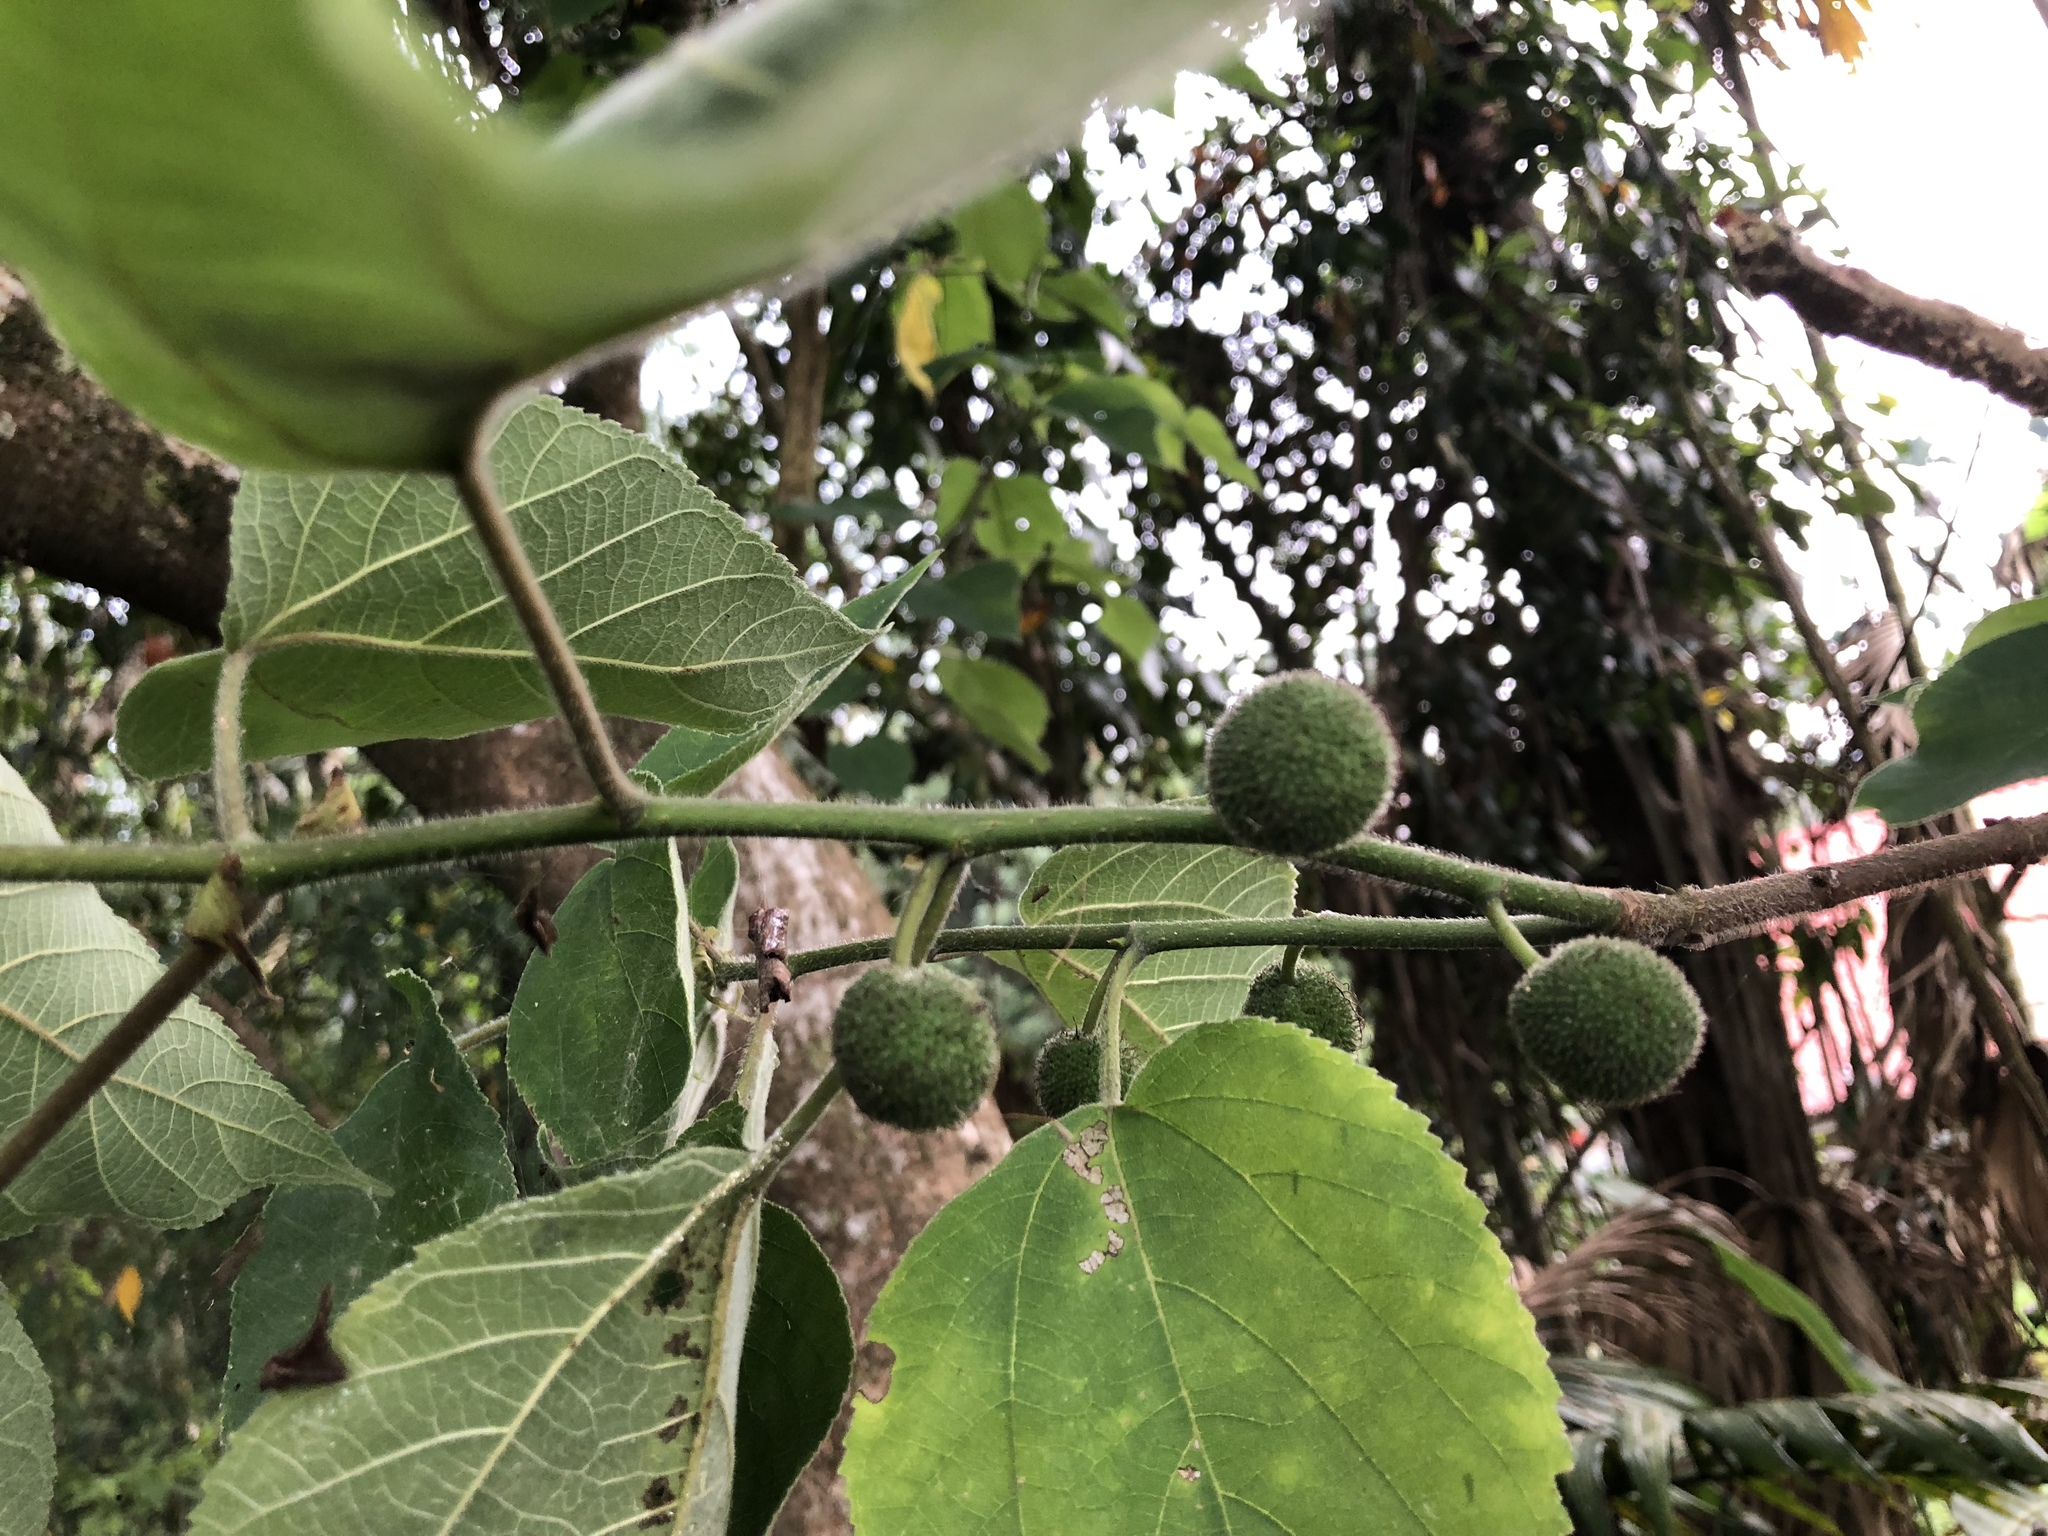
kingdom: Plantae
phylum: Tracheophyta
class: Magnoliopsida
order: Rosales
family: Moraceae
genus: Broussonetia
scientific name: Broussonetia papyrifera
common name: Paper mulberry
